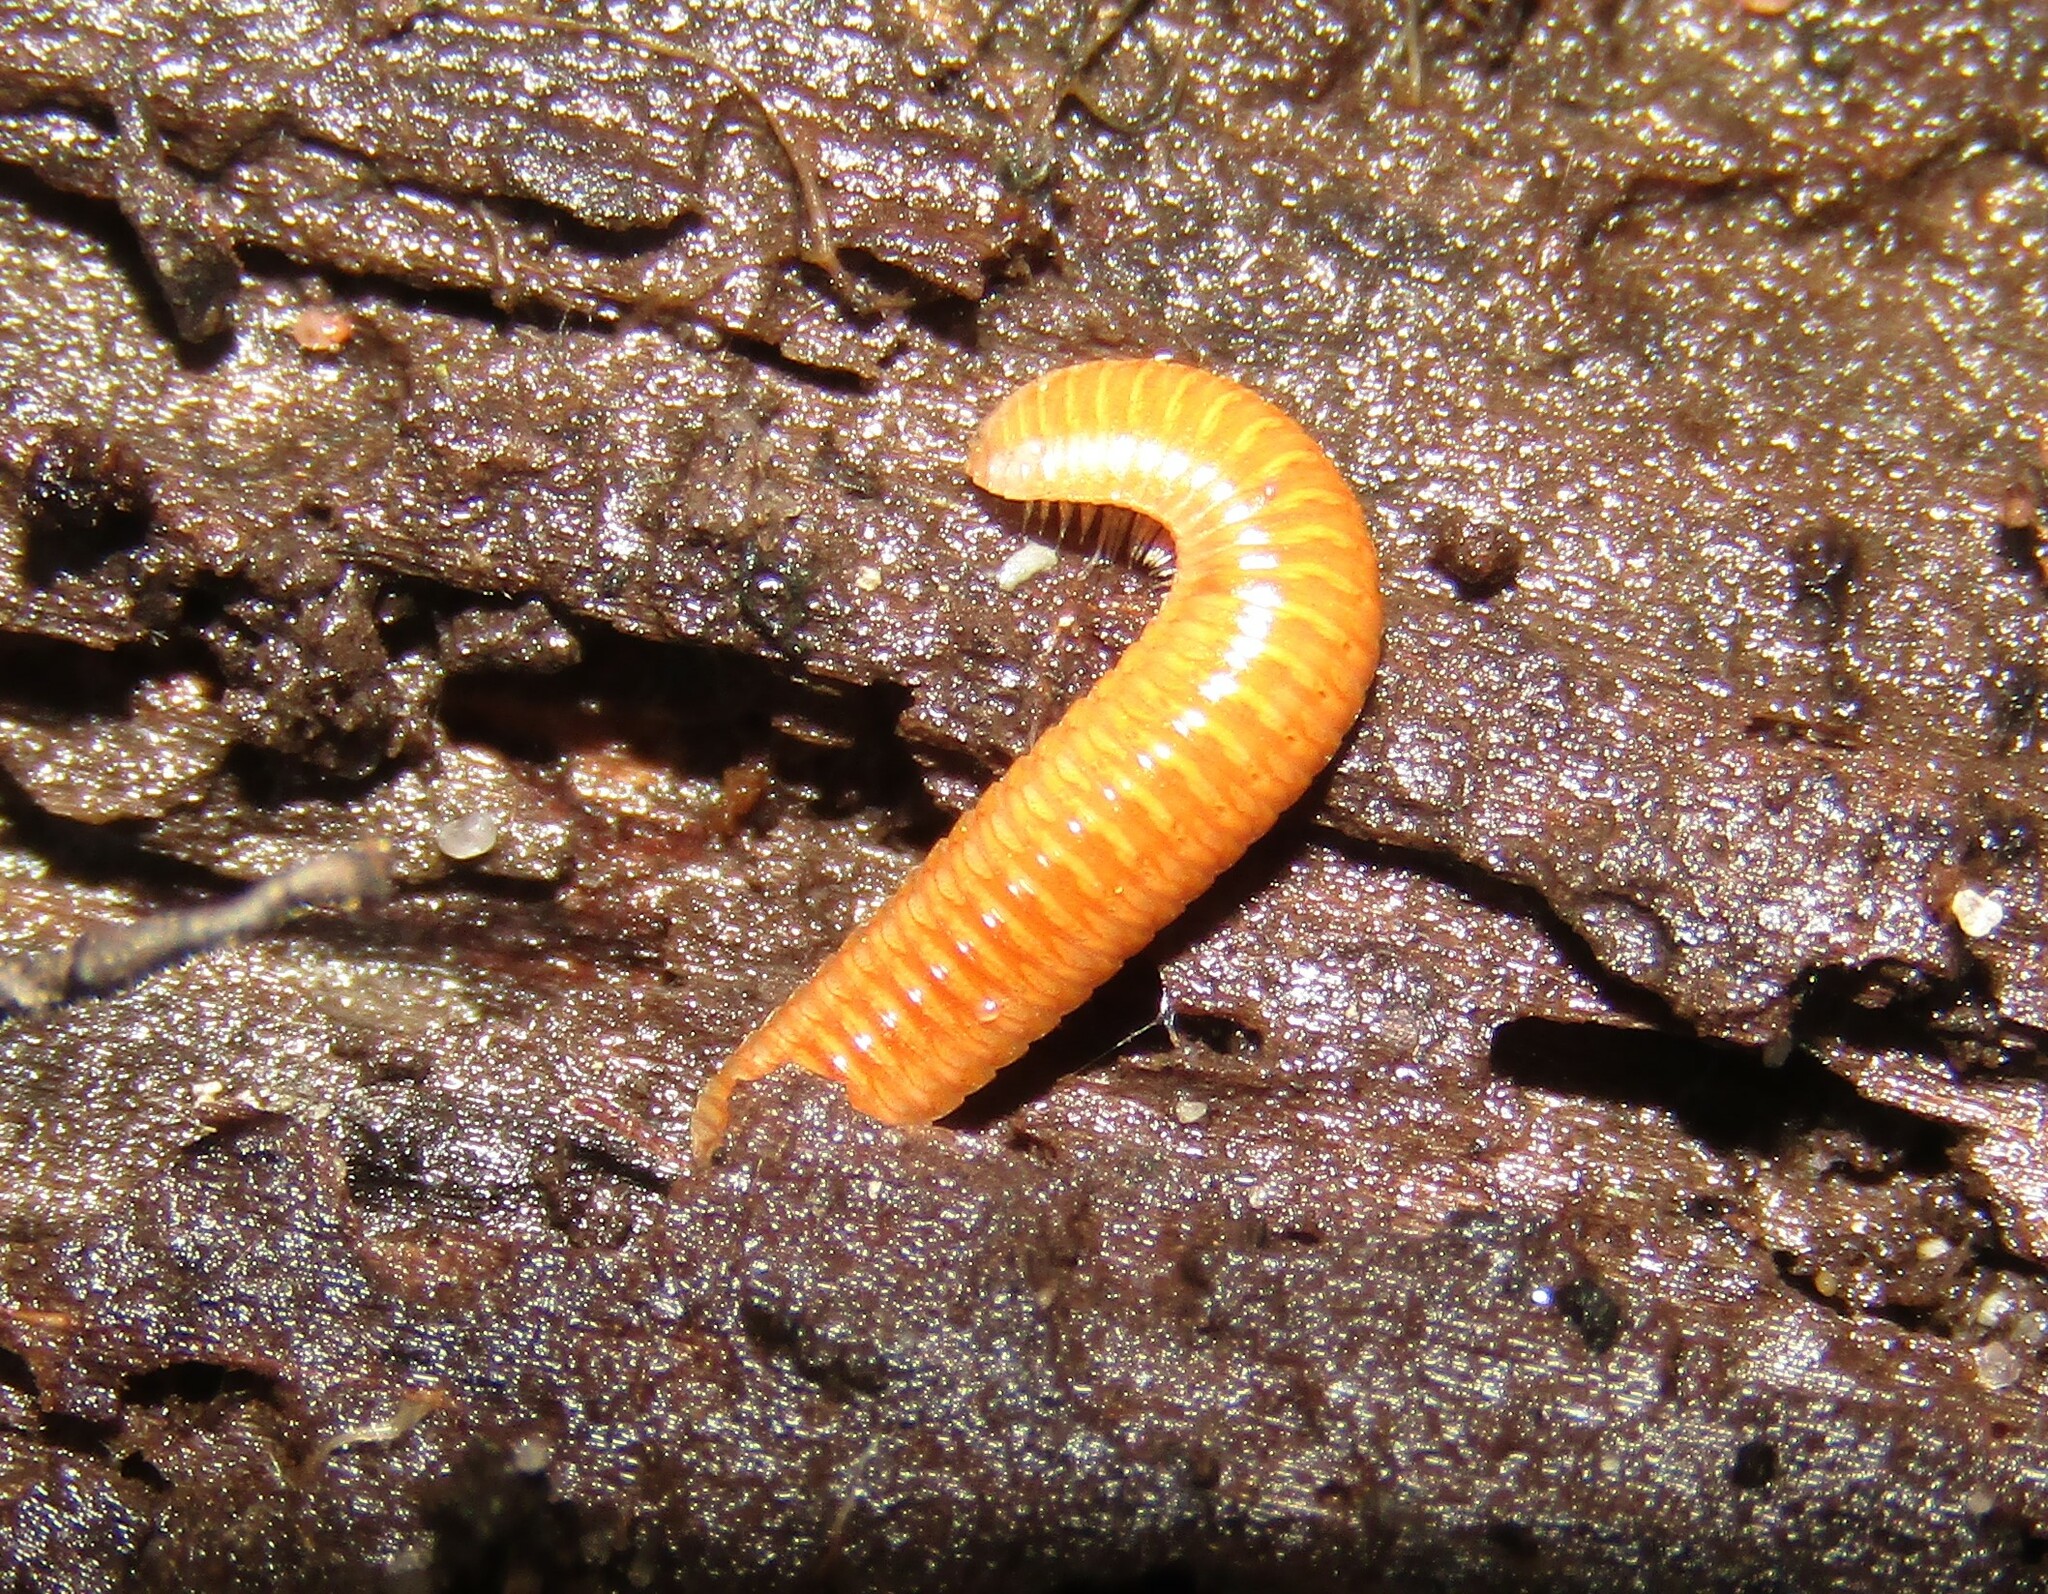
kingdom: Animalia
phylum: Arthropoda
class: Diplopoda
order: Polyzoniida
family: Polyzoniidae
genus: Polyzonium
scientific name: Polyzonium germanicum
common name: Boring millipede
